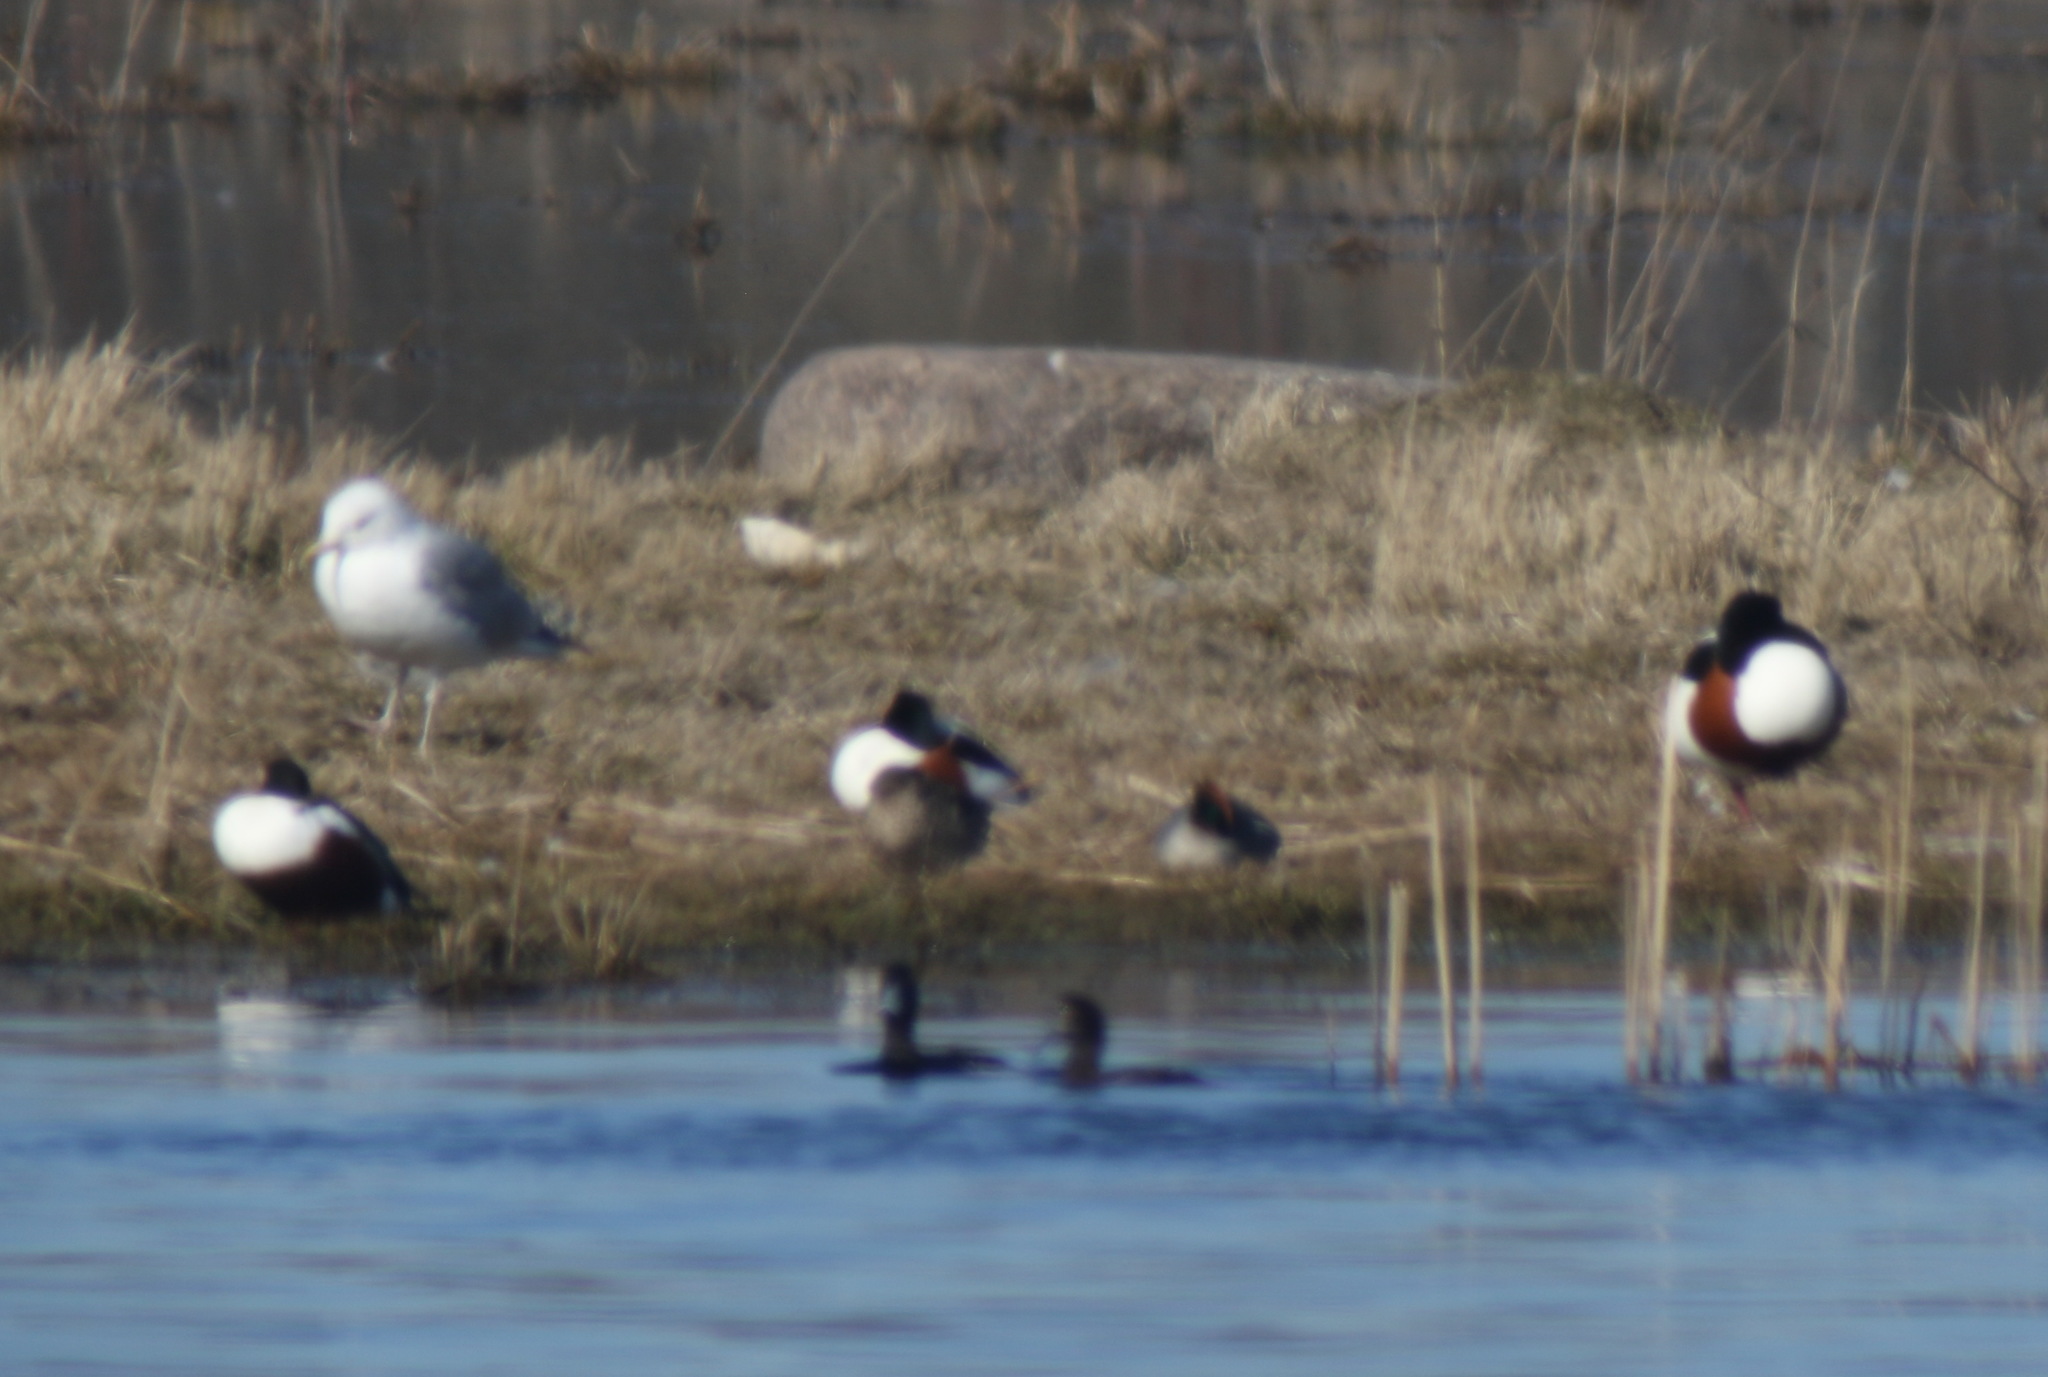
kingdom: Animalia
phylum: Chordata
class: Aves
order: Anseriformes
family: Anatidae
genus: Anas
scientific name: Anas crecca
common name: Eurasian teal
